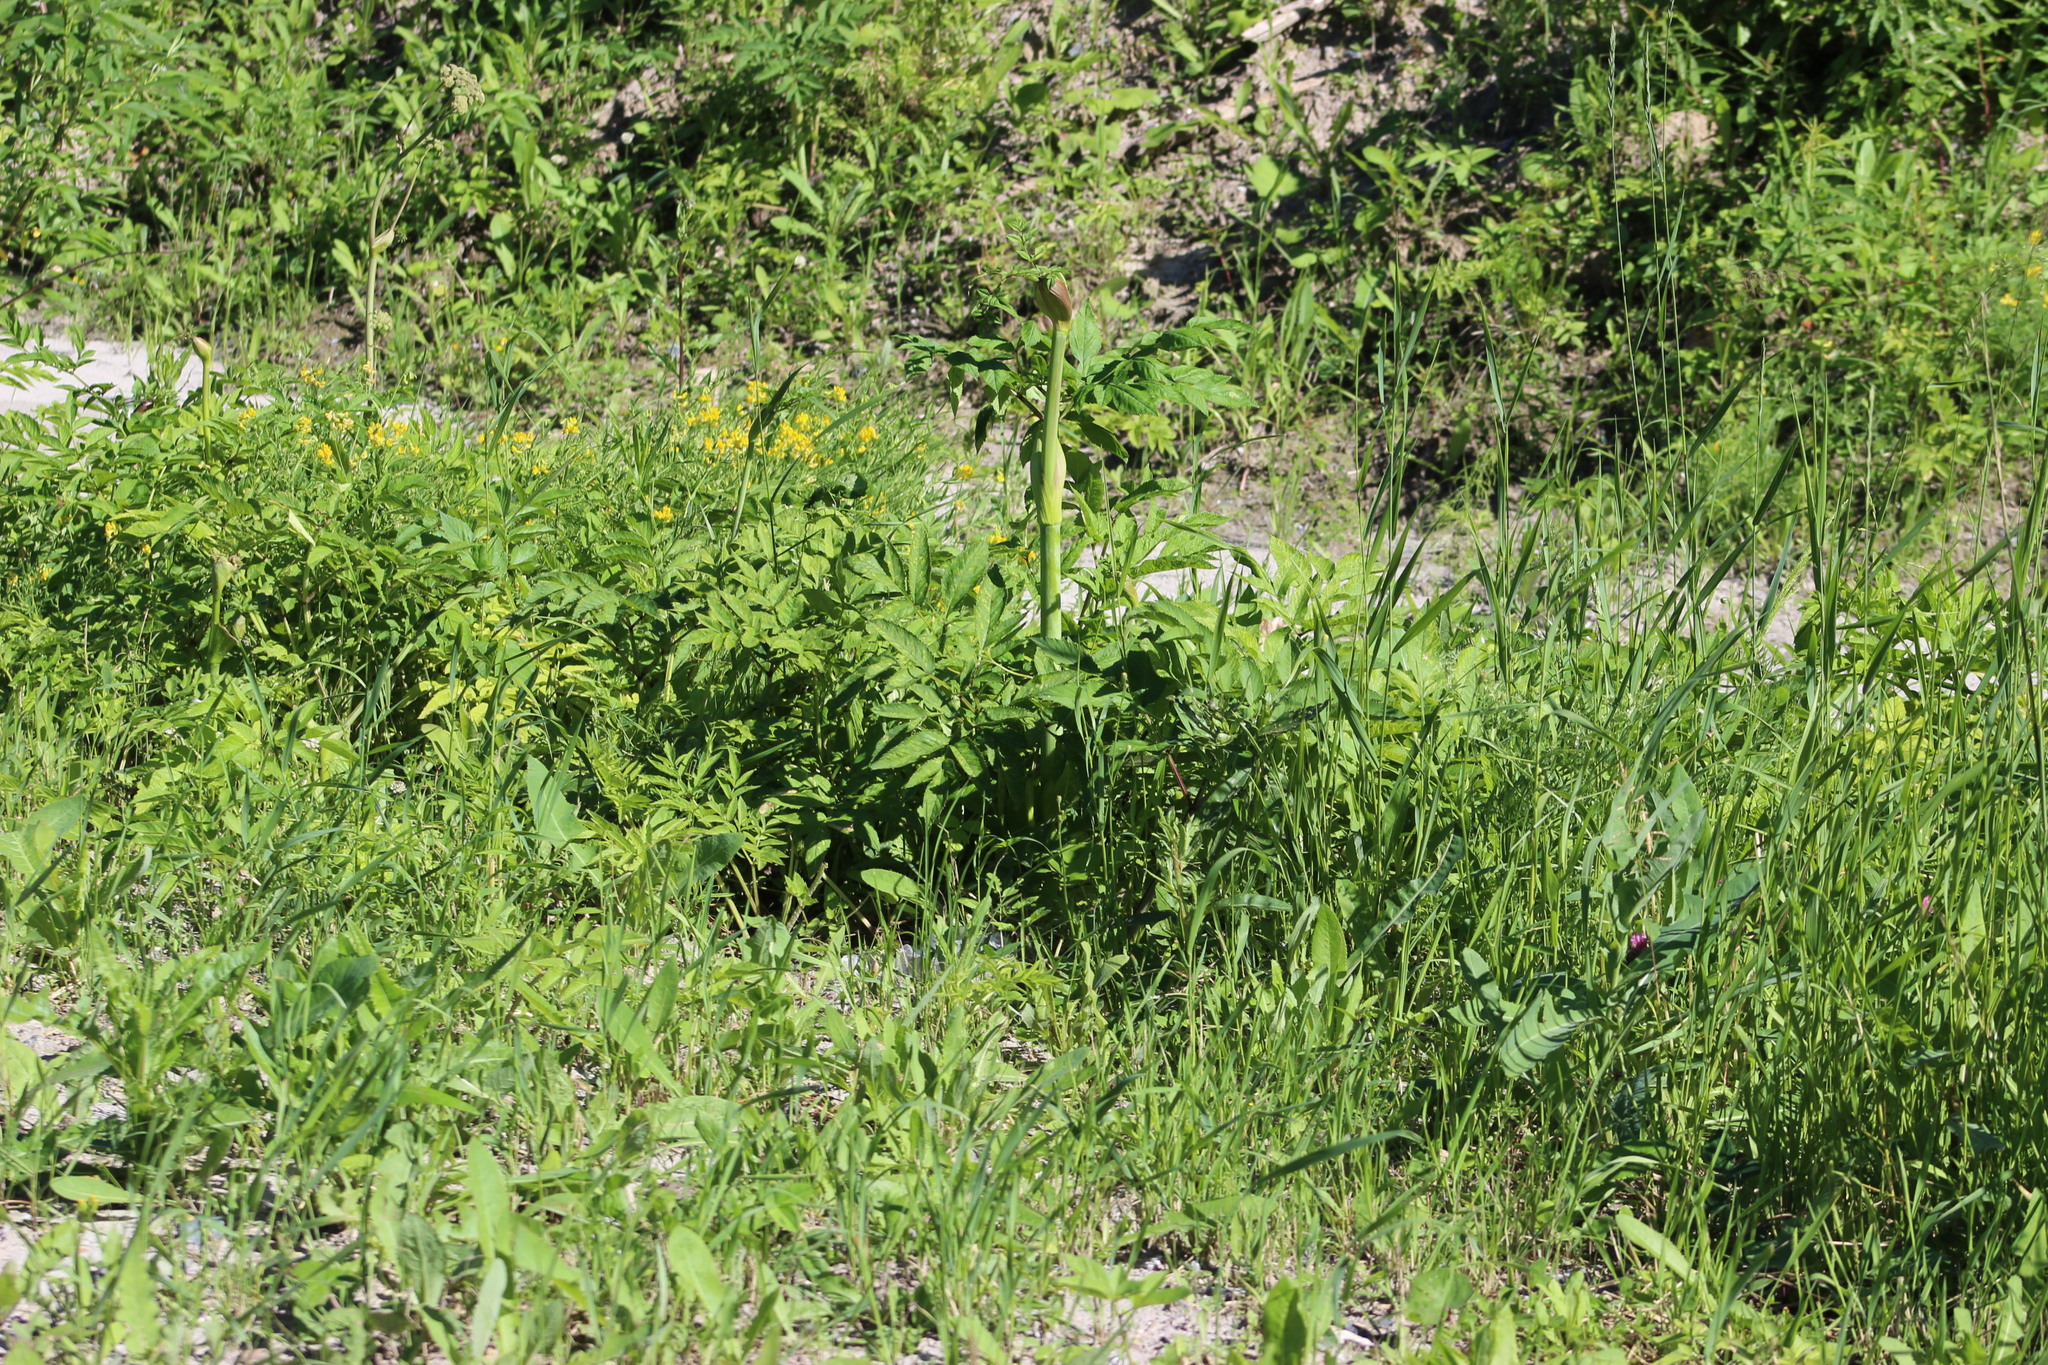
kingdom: Plantae
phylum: Tracheophyta
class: Magnoliopsida
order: Apiales
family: Apiaceae
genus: Angelica
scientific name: Angelica sylvestris
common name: Wild angelica
